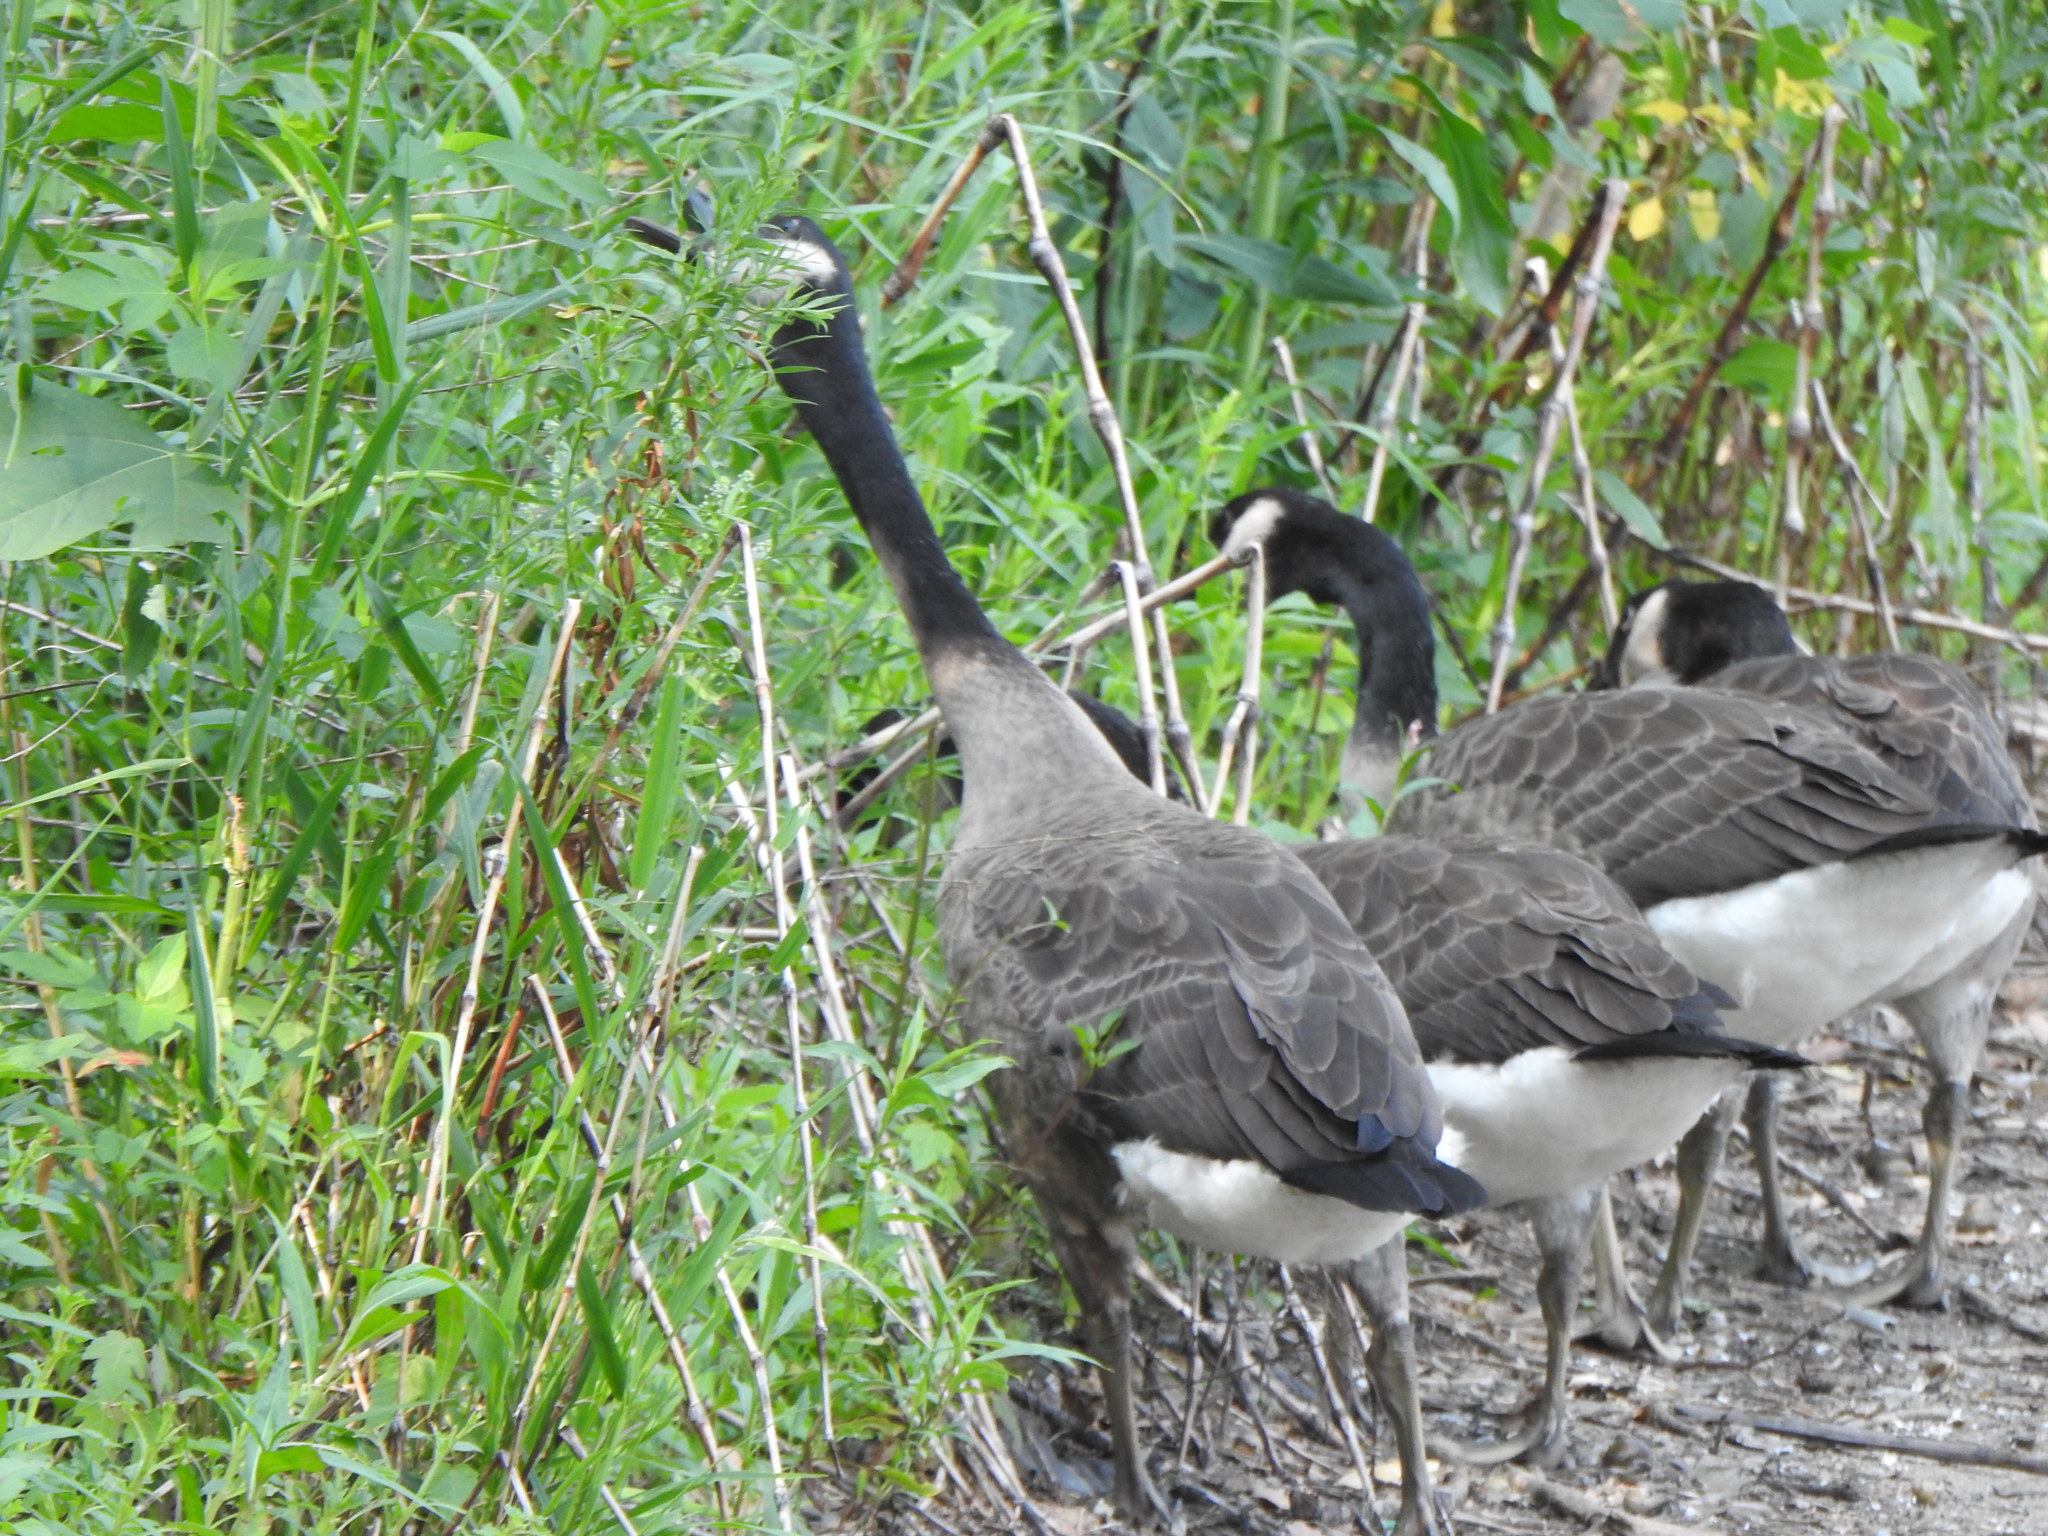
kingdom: Animalia
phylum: Chordata
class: Aves
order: Anseriformes
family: Anatidae
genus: Branta
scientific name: Branta canadensis
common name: Canada goose
